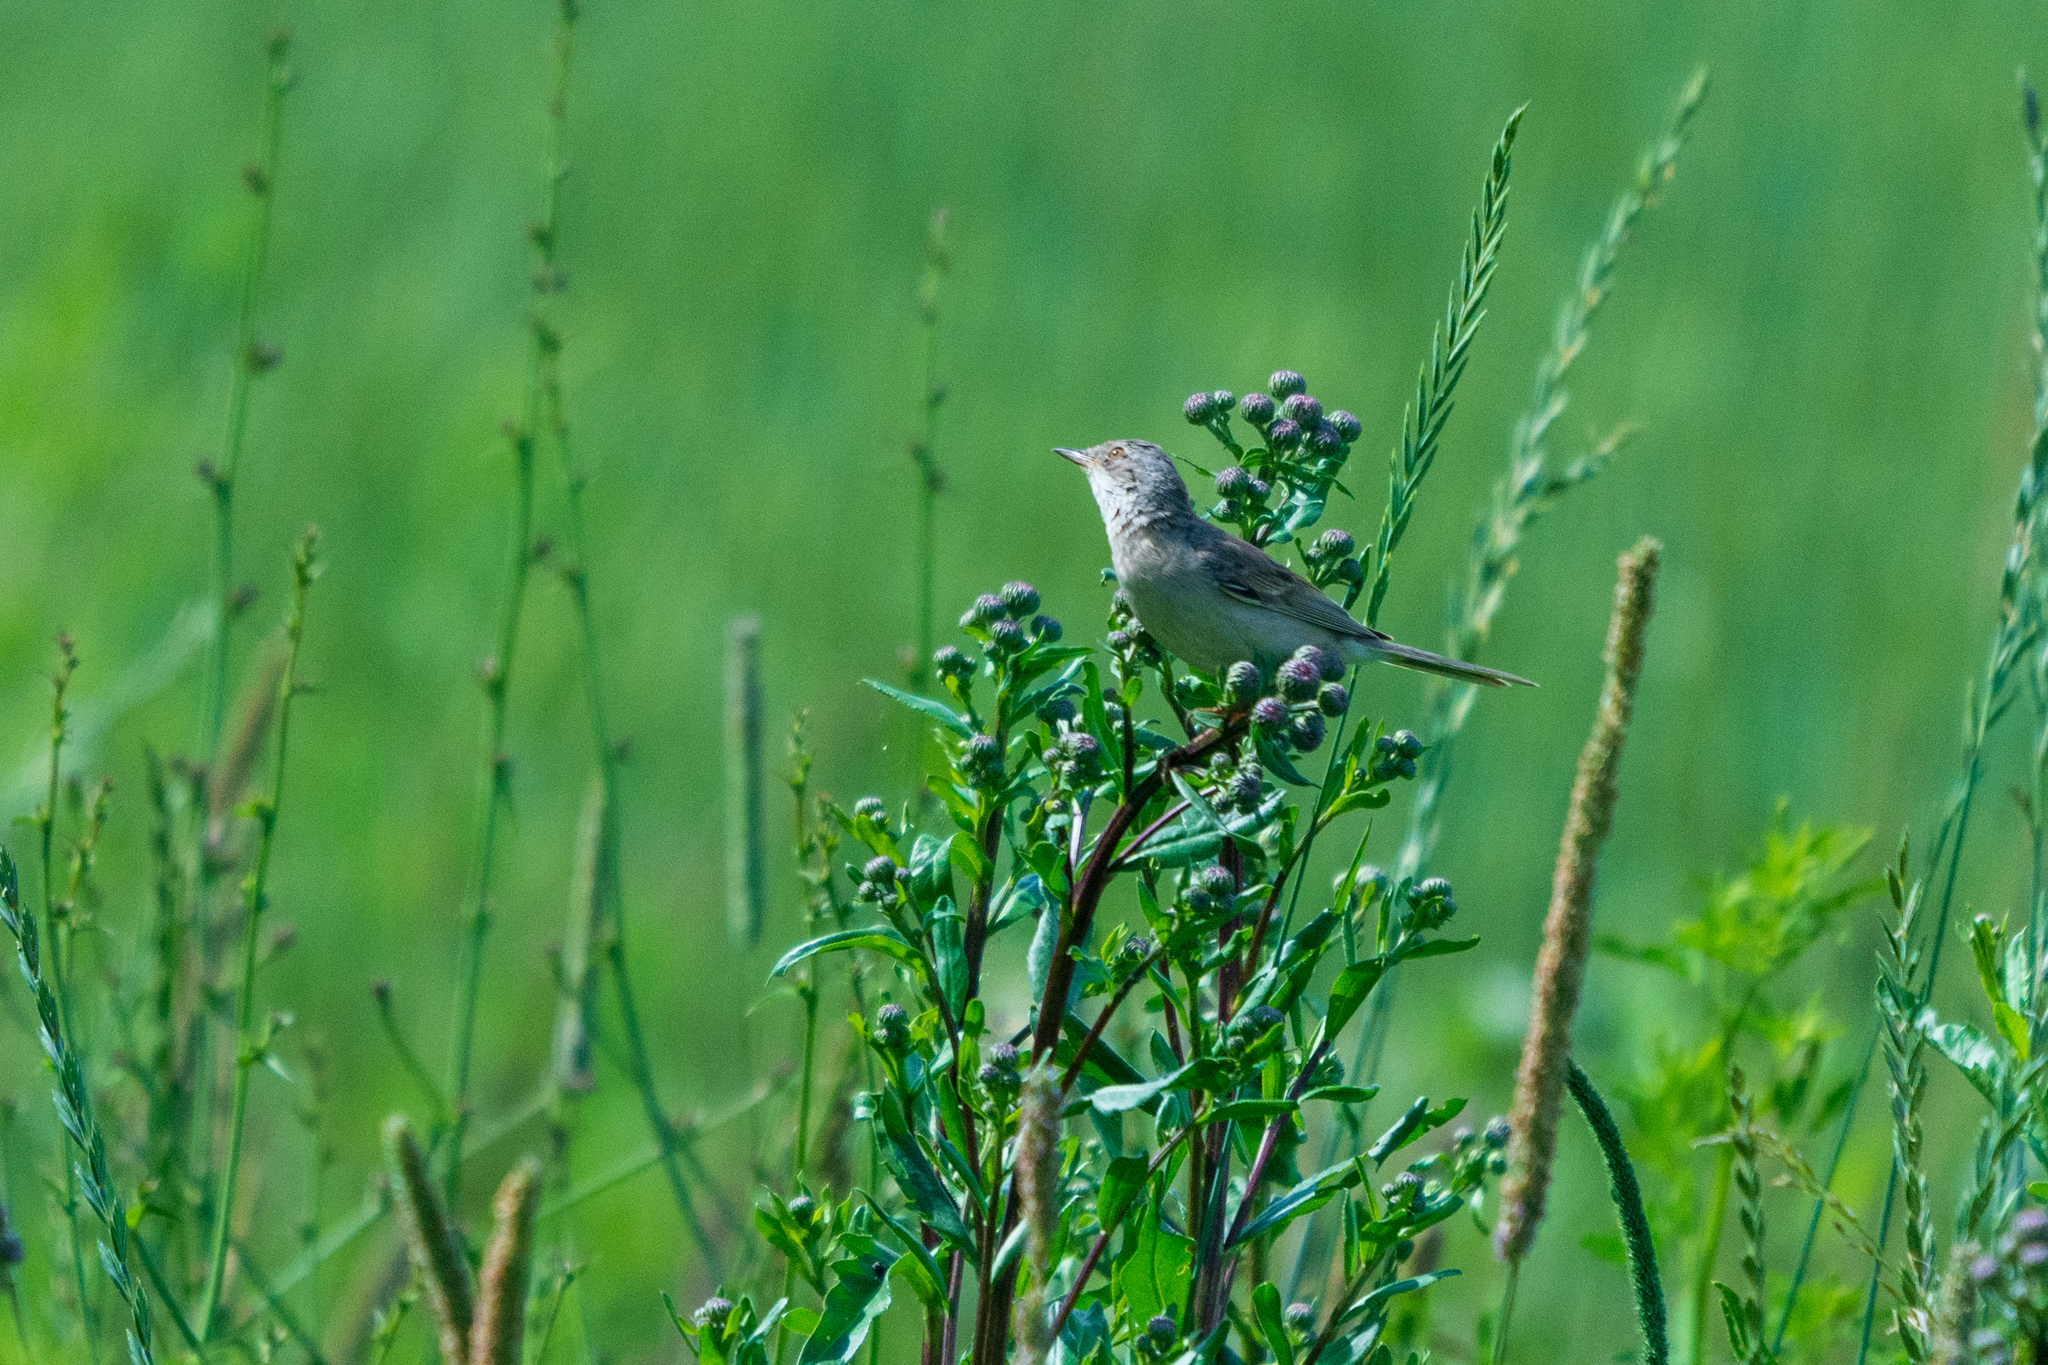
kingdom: Animalia
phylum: Chordata
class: Aves
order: Passeriformes
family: Sylviidae
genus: Sylvia
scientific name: Sylvia communis
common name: Common whitethroat
